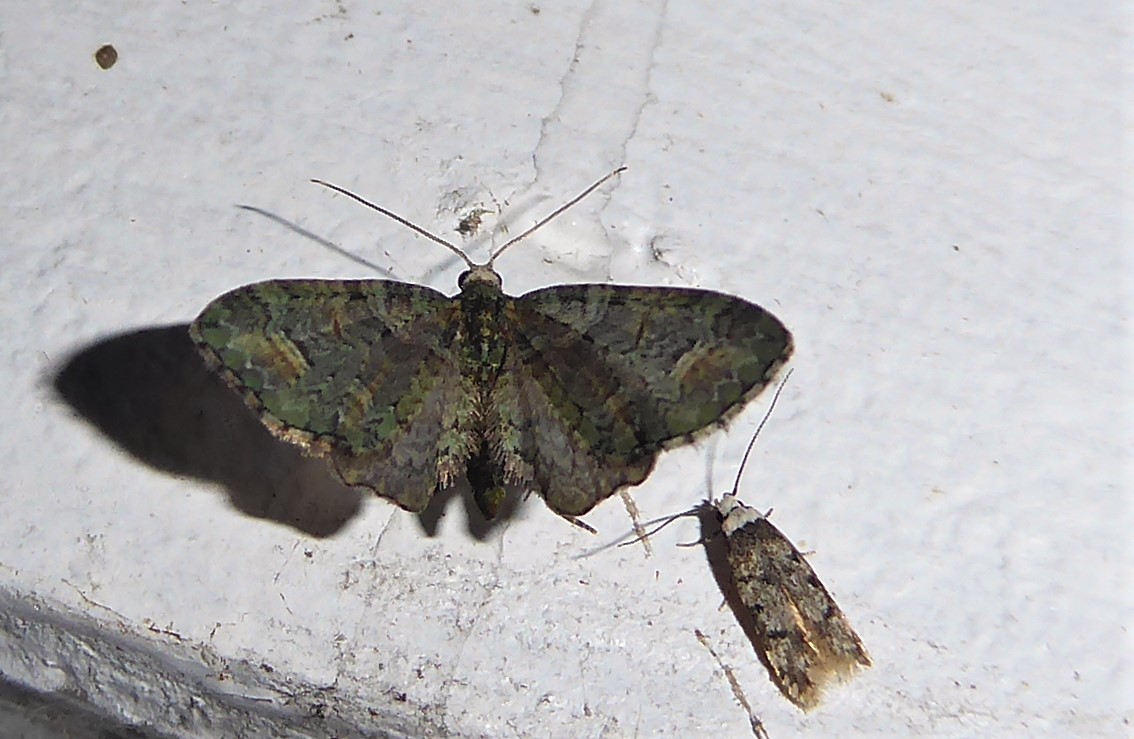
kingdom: Animalia
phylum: Arthropoda
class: Insecta
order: Lepidoptera
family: Geometridae
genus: Idaea
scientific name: Idaea mutanda
